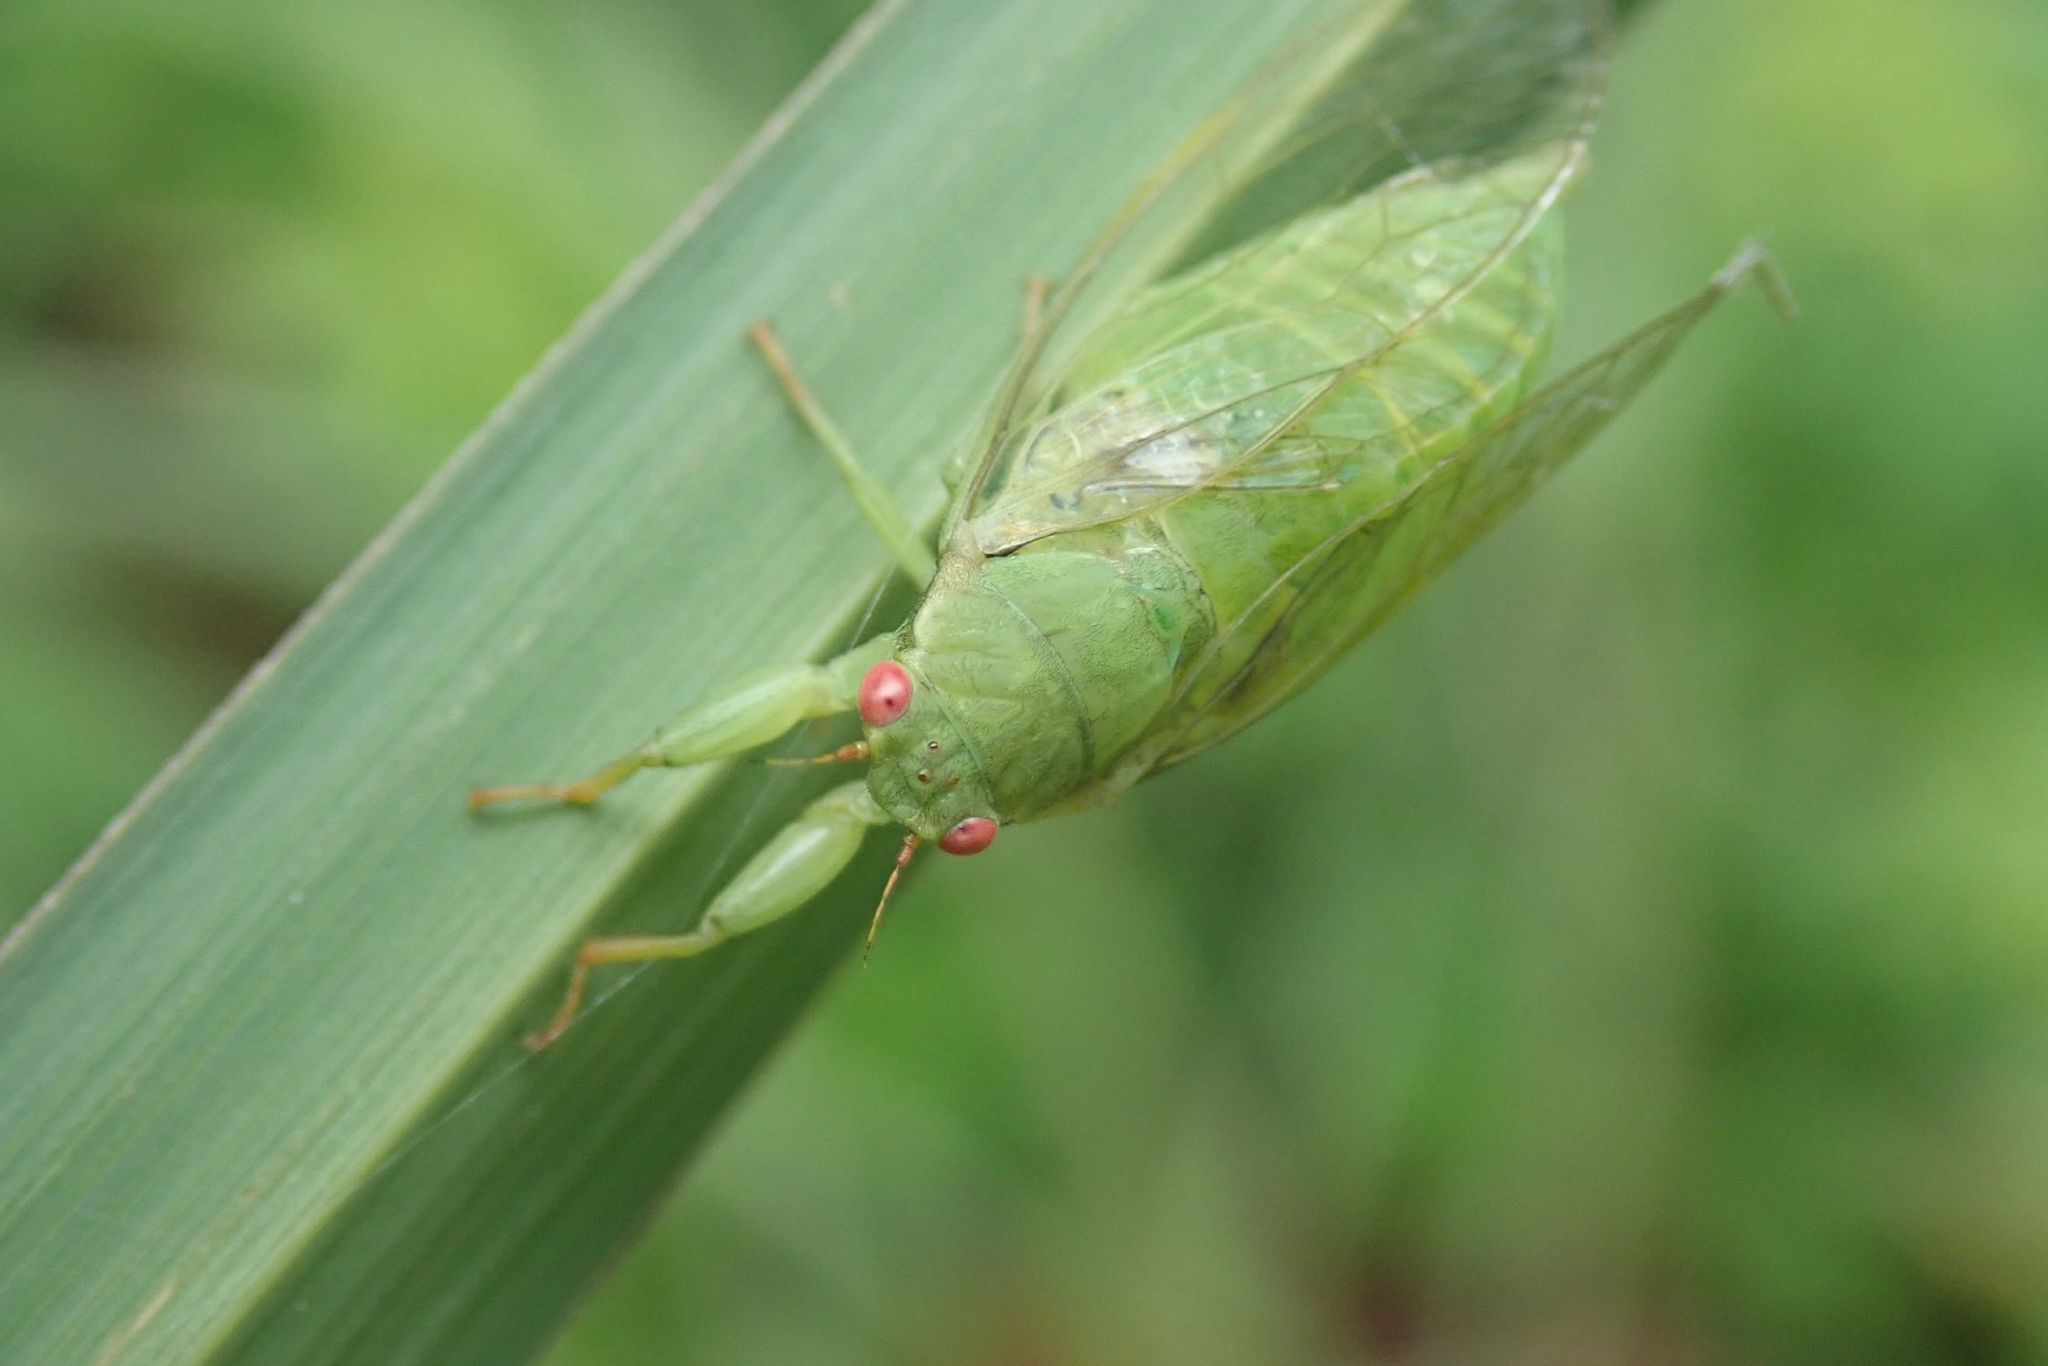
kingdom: Animalia
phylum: Arthropoda
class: Insecta
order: Hemiptera
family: Cicadidae
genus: Stagira
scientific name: Stagira vulgata
